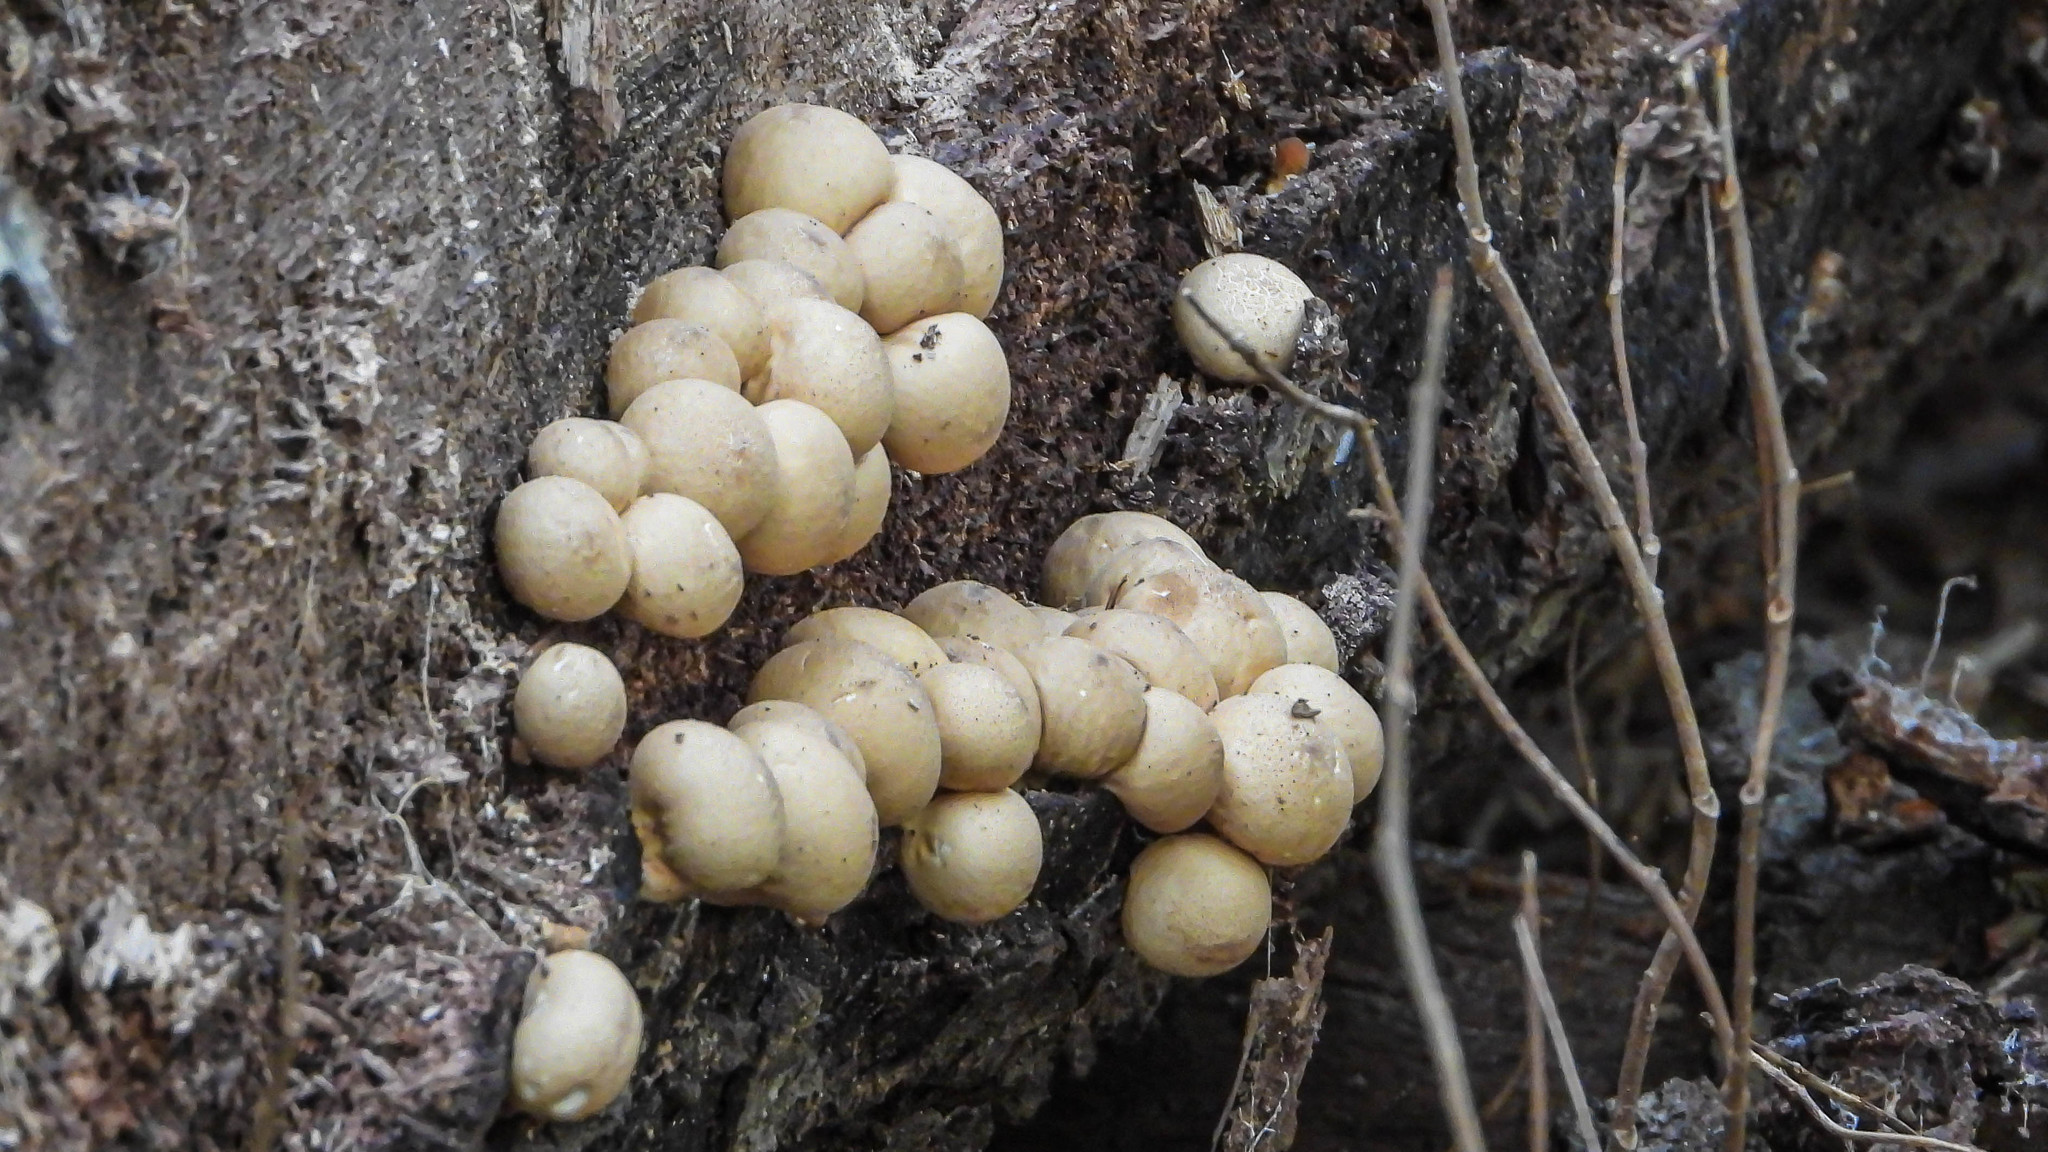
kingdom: Fungi
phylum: Basidiomycota
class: Agaricomycetes
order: Agaricales
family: Lycoperdaceae
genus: Apioperdon
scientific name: Apioperdon pyriforme
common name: Pear-shaped puffball
